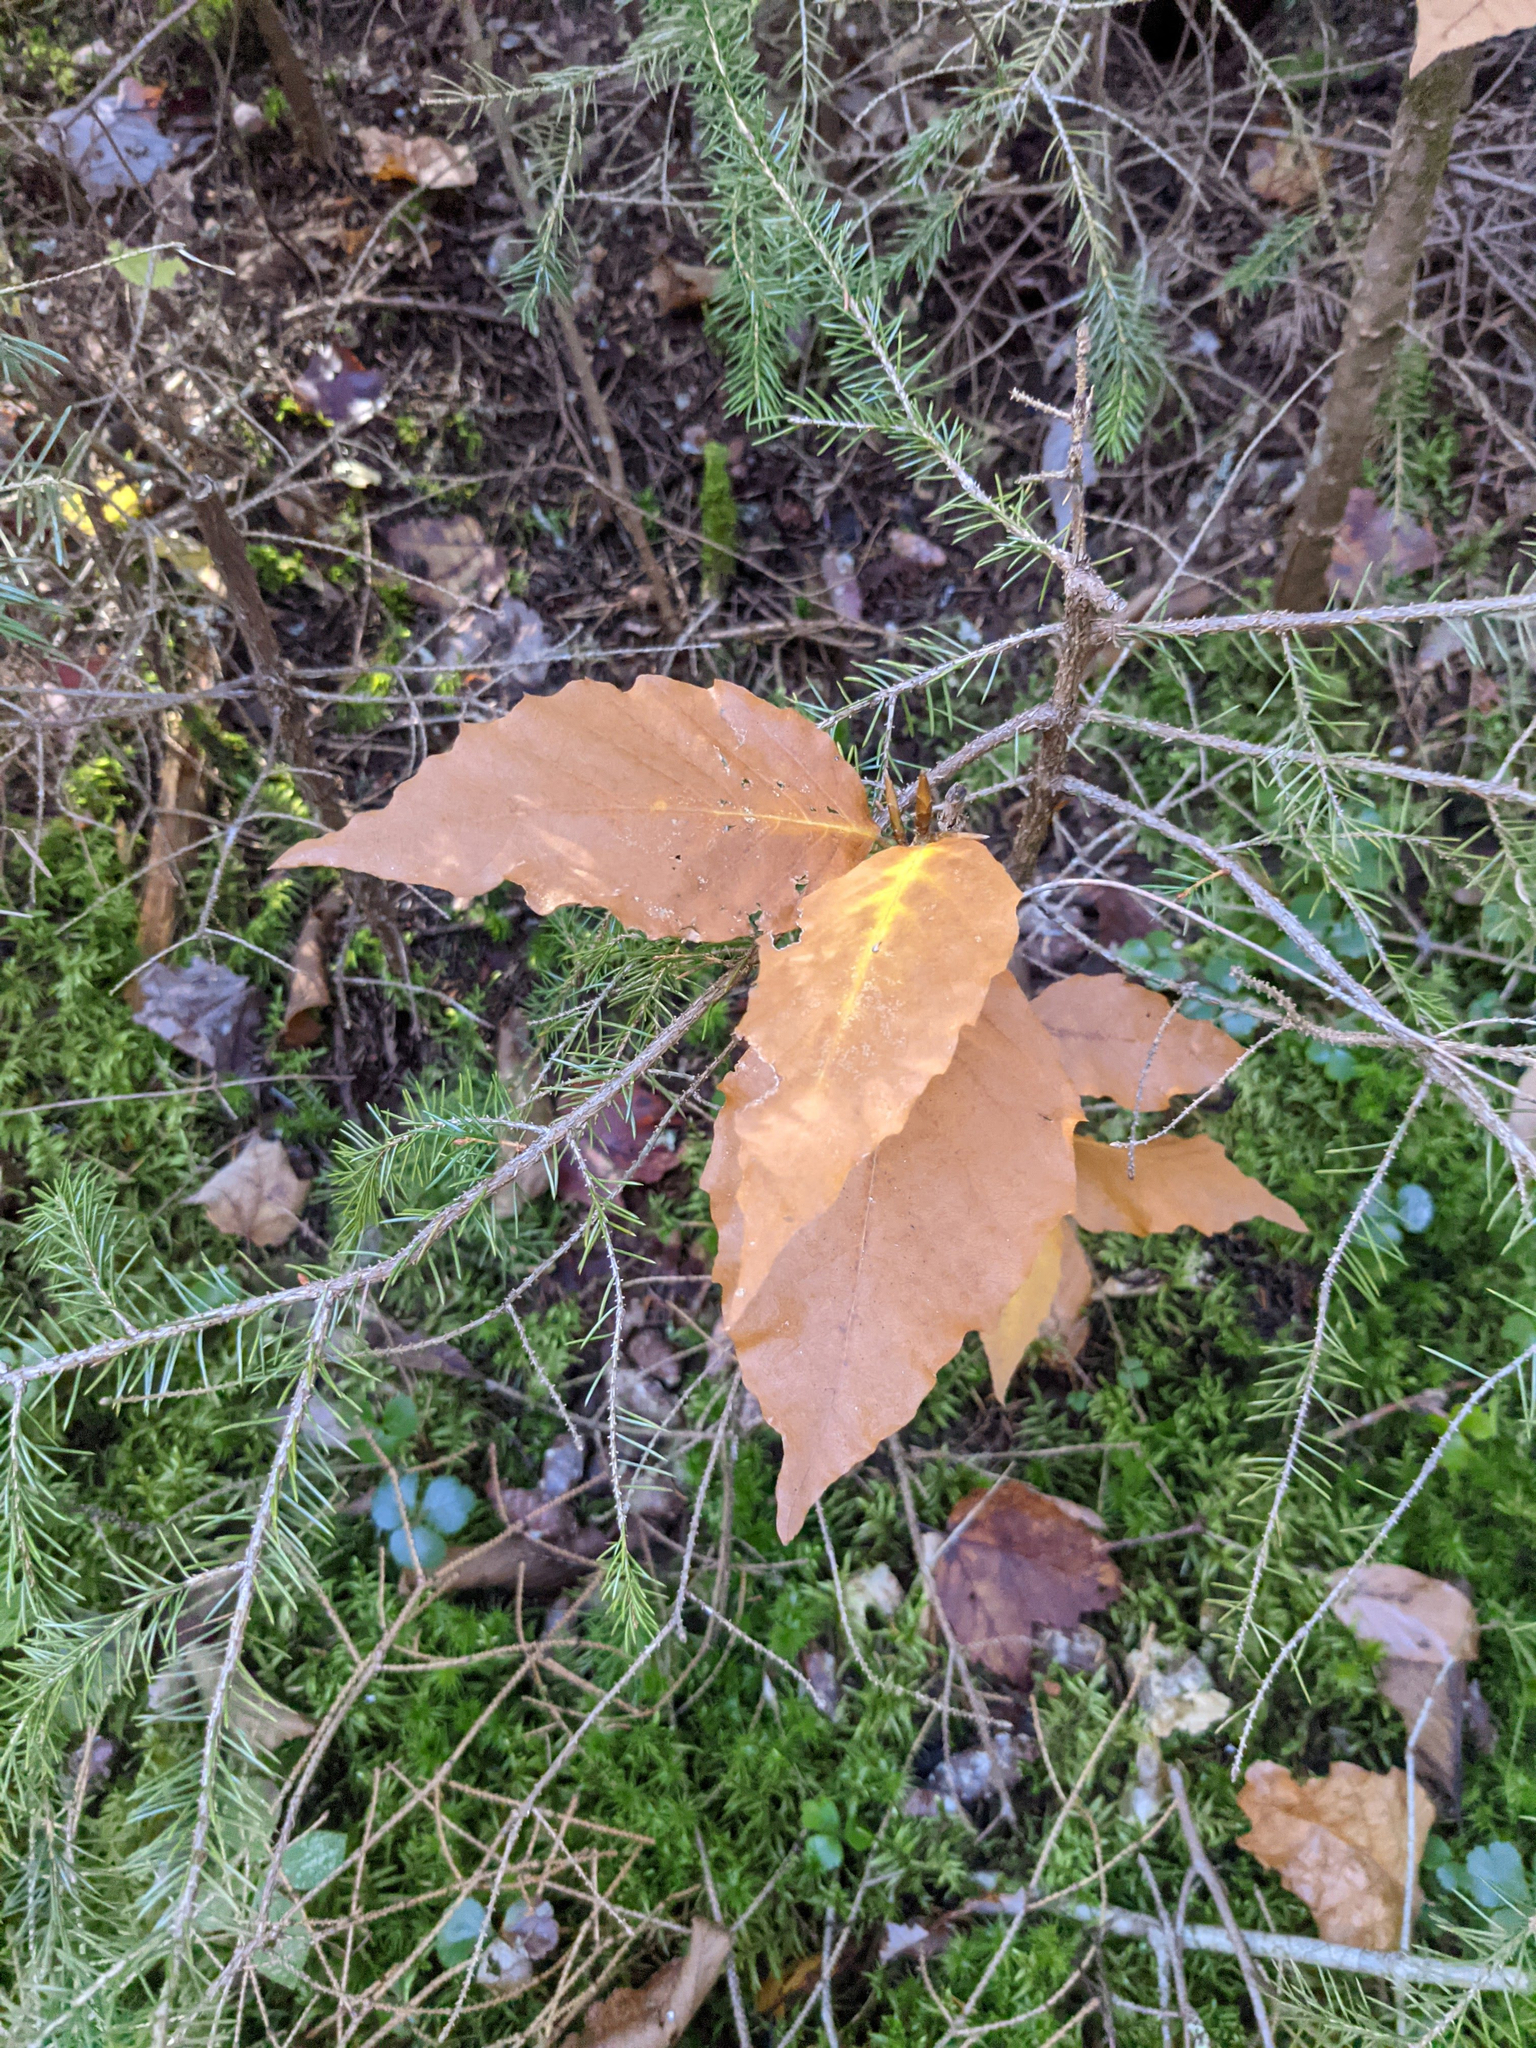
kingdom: Plantae
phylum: Tracheophyta
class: Magnoliopsida
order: Fagales
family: Fagaceae
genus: Fagus
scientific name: Fagus grandifolia
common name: American beech
